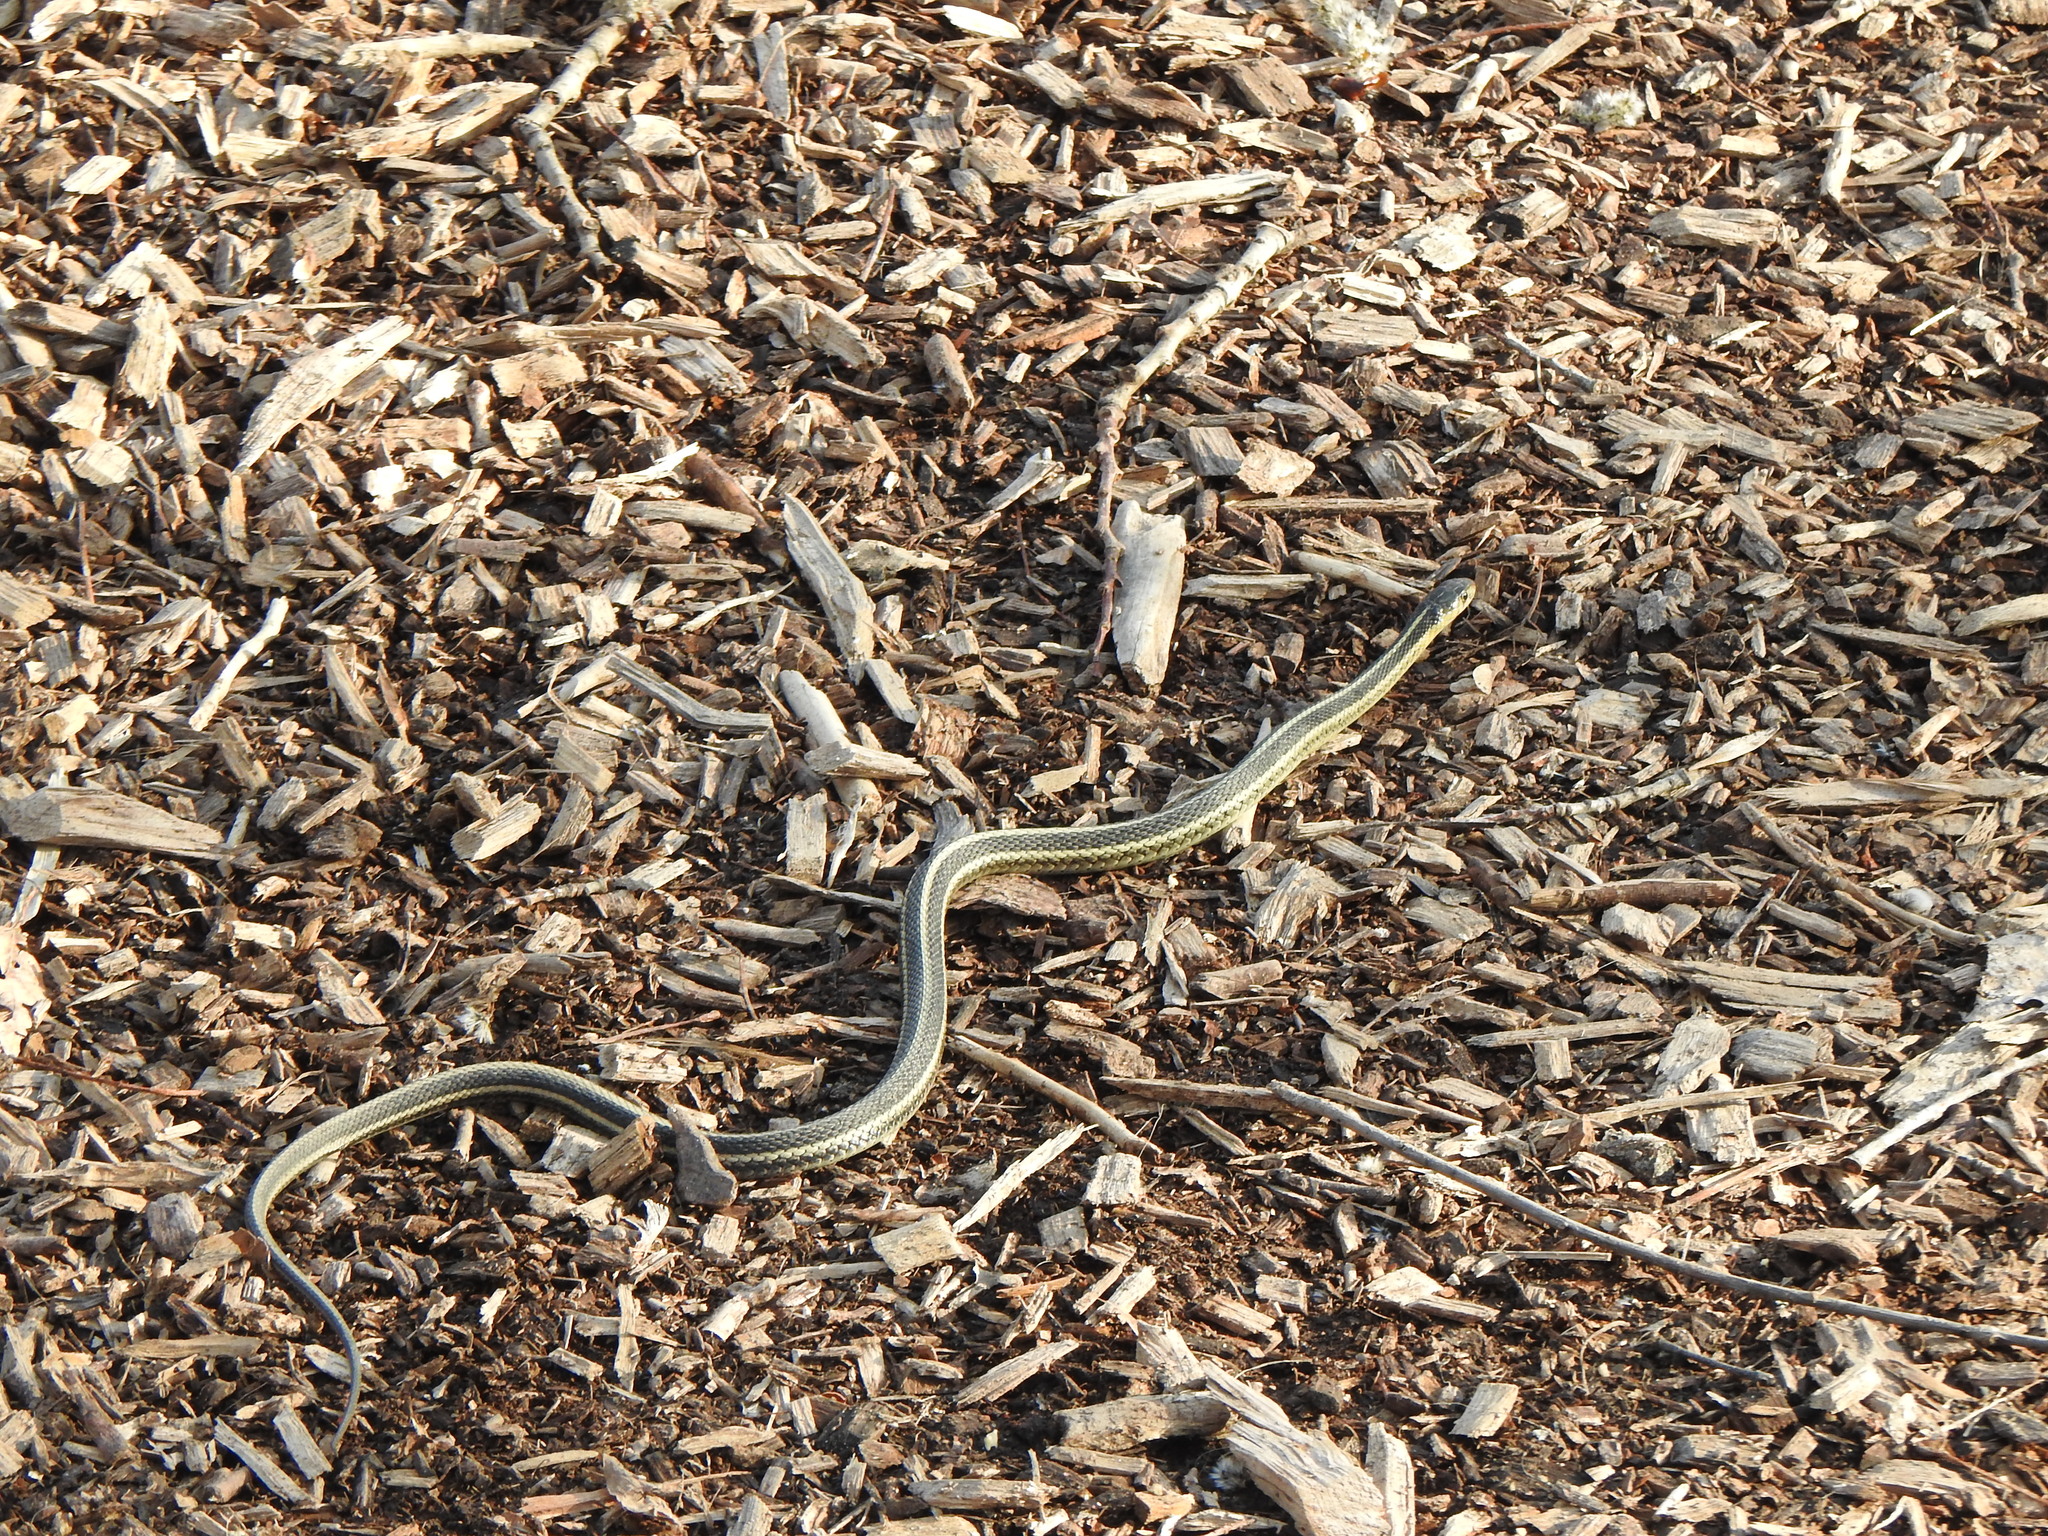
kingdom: Animalia
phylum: Chordata
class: Squamata
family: Colubridae
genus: Thamnophis
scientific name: Thamnophis sirtalis
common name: Common garter snake
